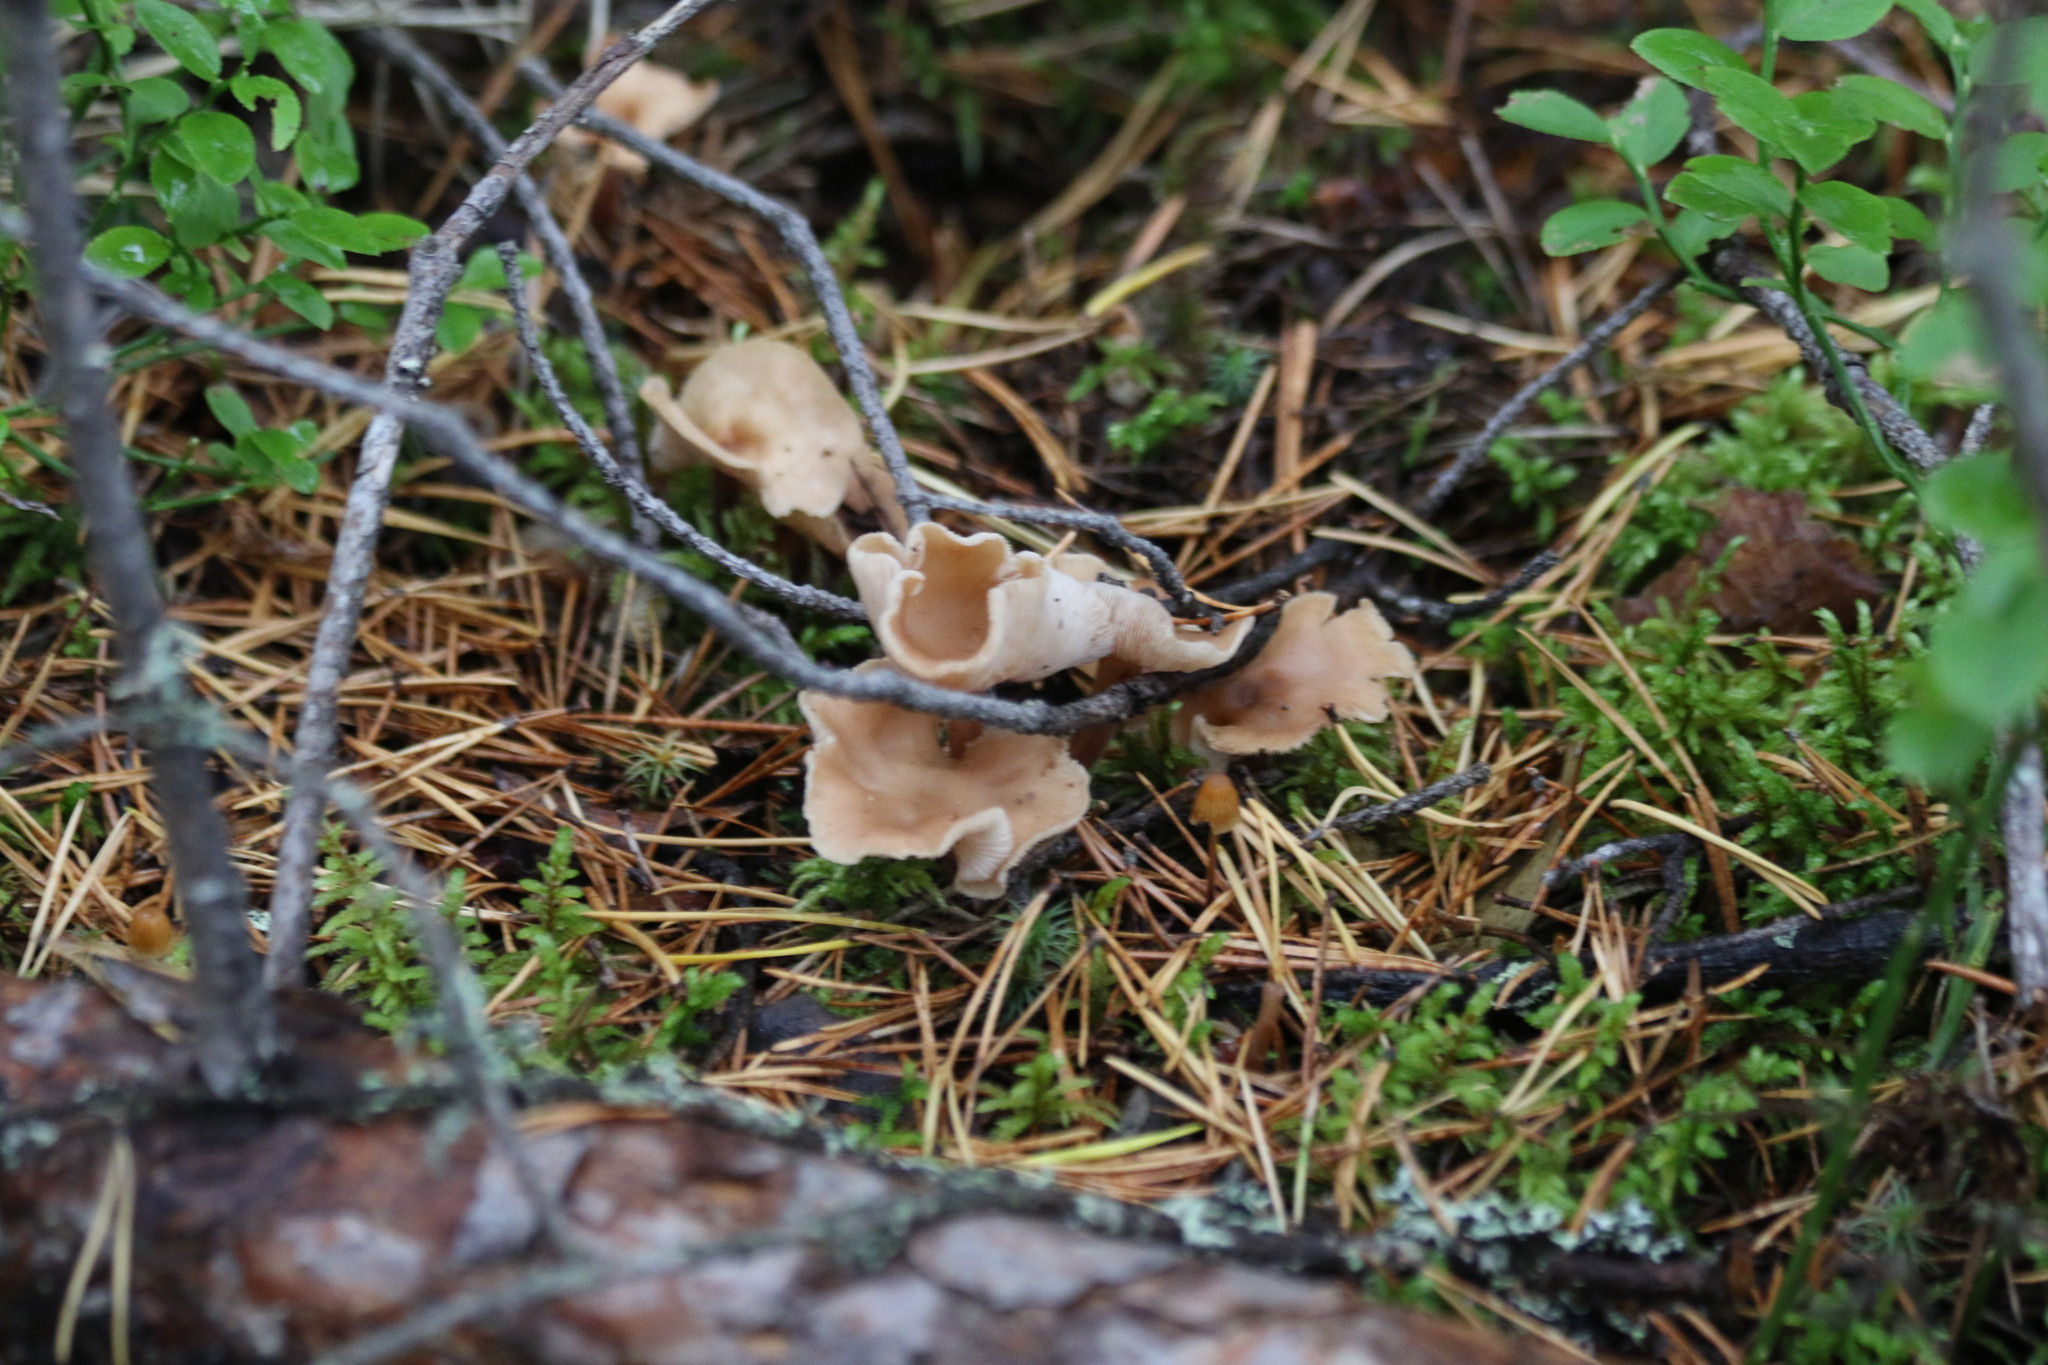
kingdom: Fungi
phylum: Basidiomycota
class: Agaricomycetes
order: Agaricales
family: Omphalotaceae
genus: Collybiopsis
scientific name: Collybiopsis confluens
